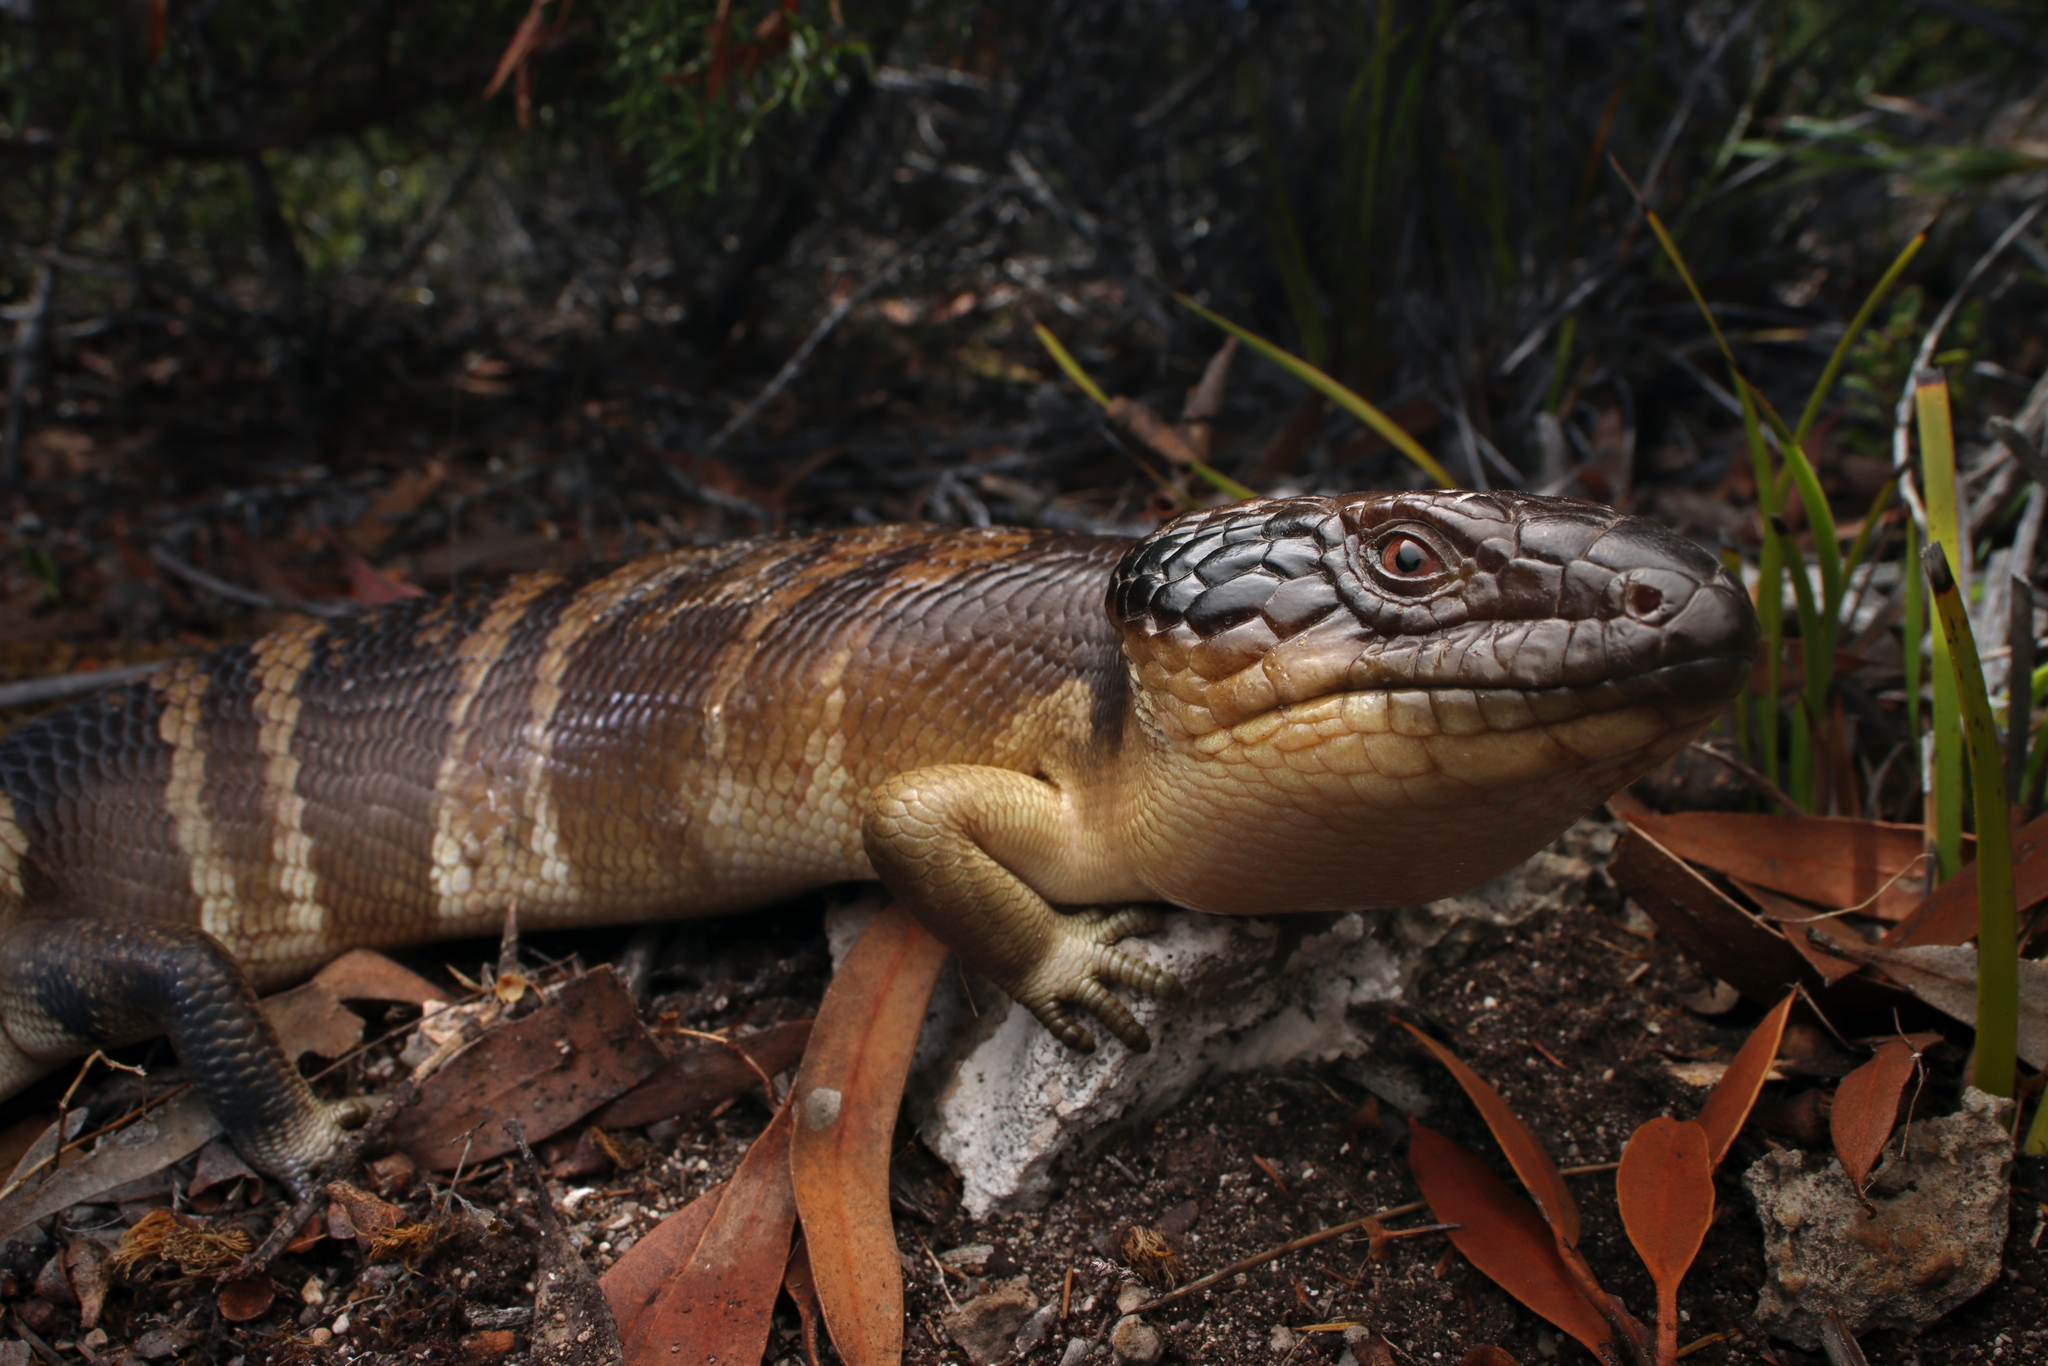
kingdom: Animalia
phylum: Chordata
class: Squamata
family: Scincidae
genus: Tiliqua
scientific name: Tiliqua occipitalis
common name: Western blue-tongued lizard
